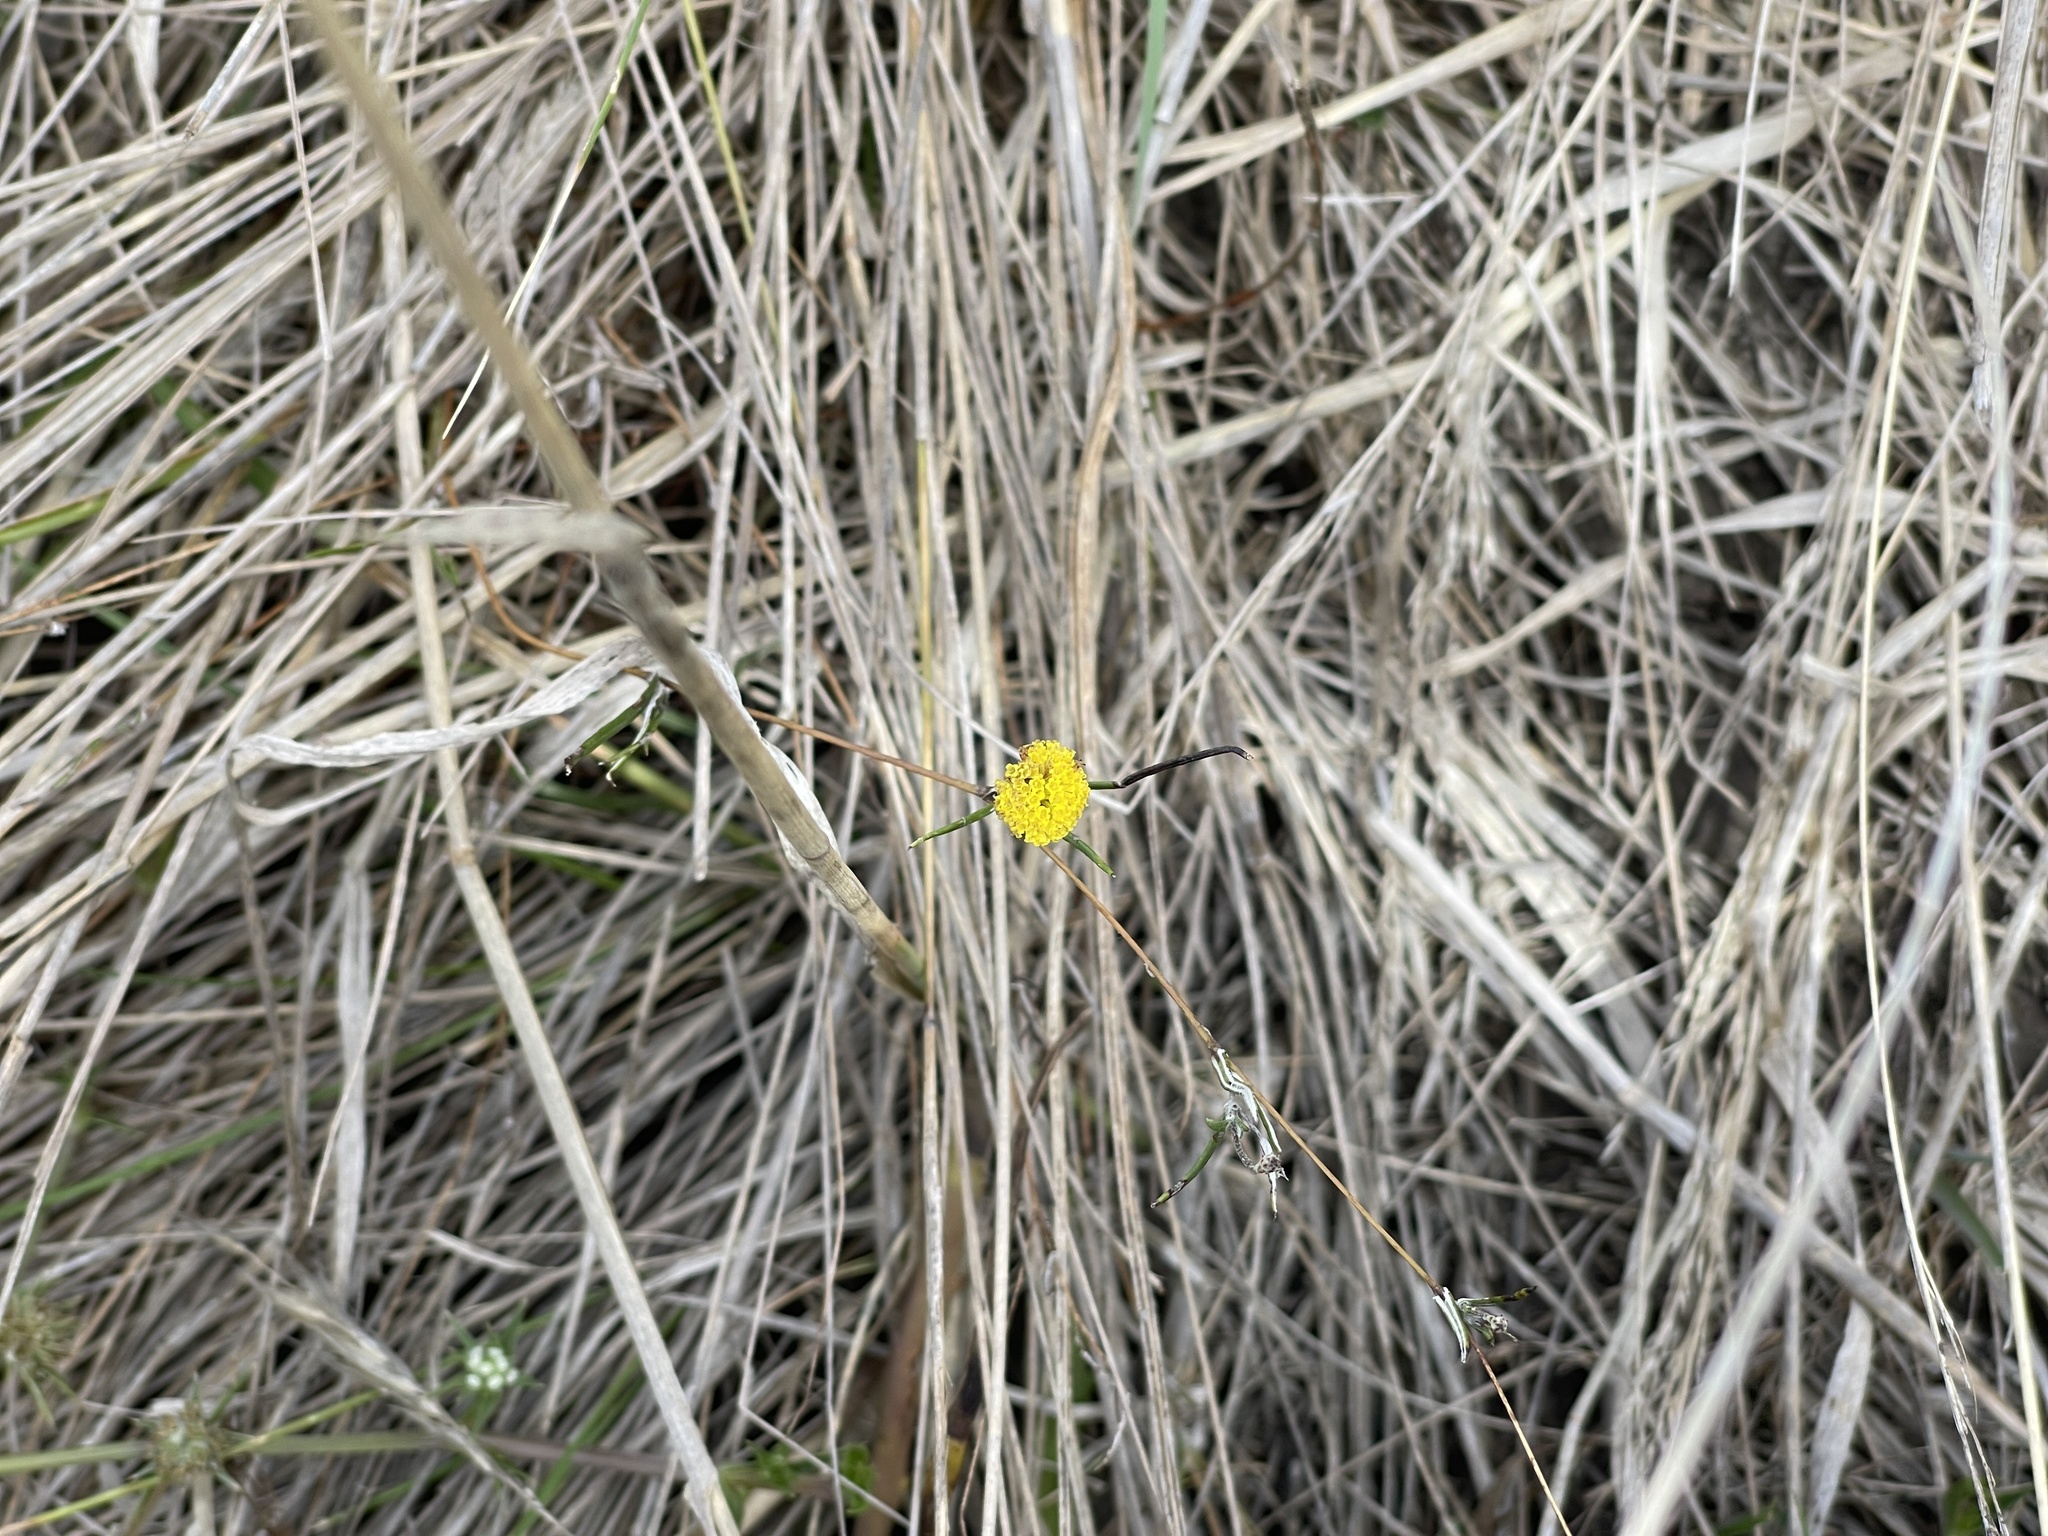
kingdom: Plantae
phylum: Tracheophyta
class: Magnoliopsida
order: Asterales
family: Asteraceae
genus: Leptorhynchos
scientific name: Leptorhynchos tenuifolius
